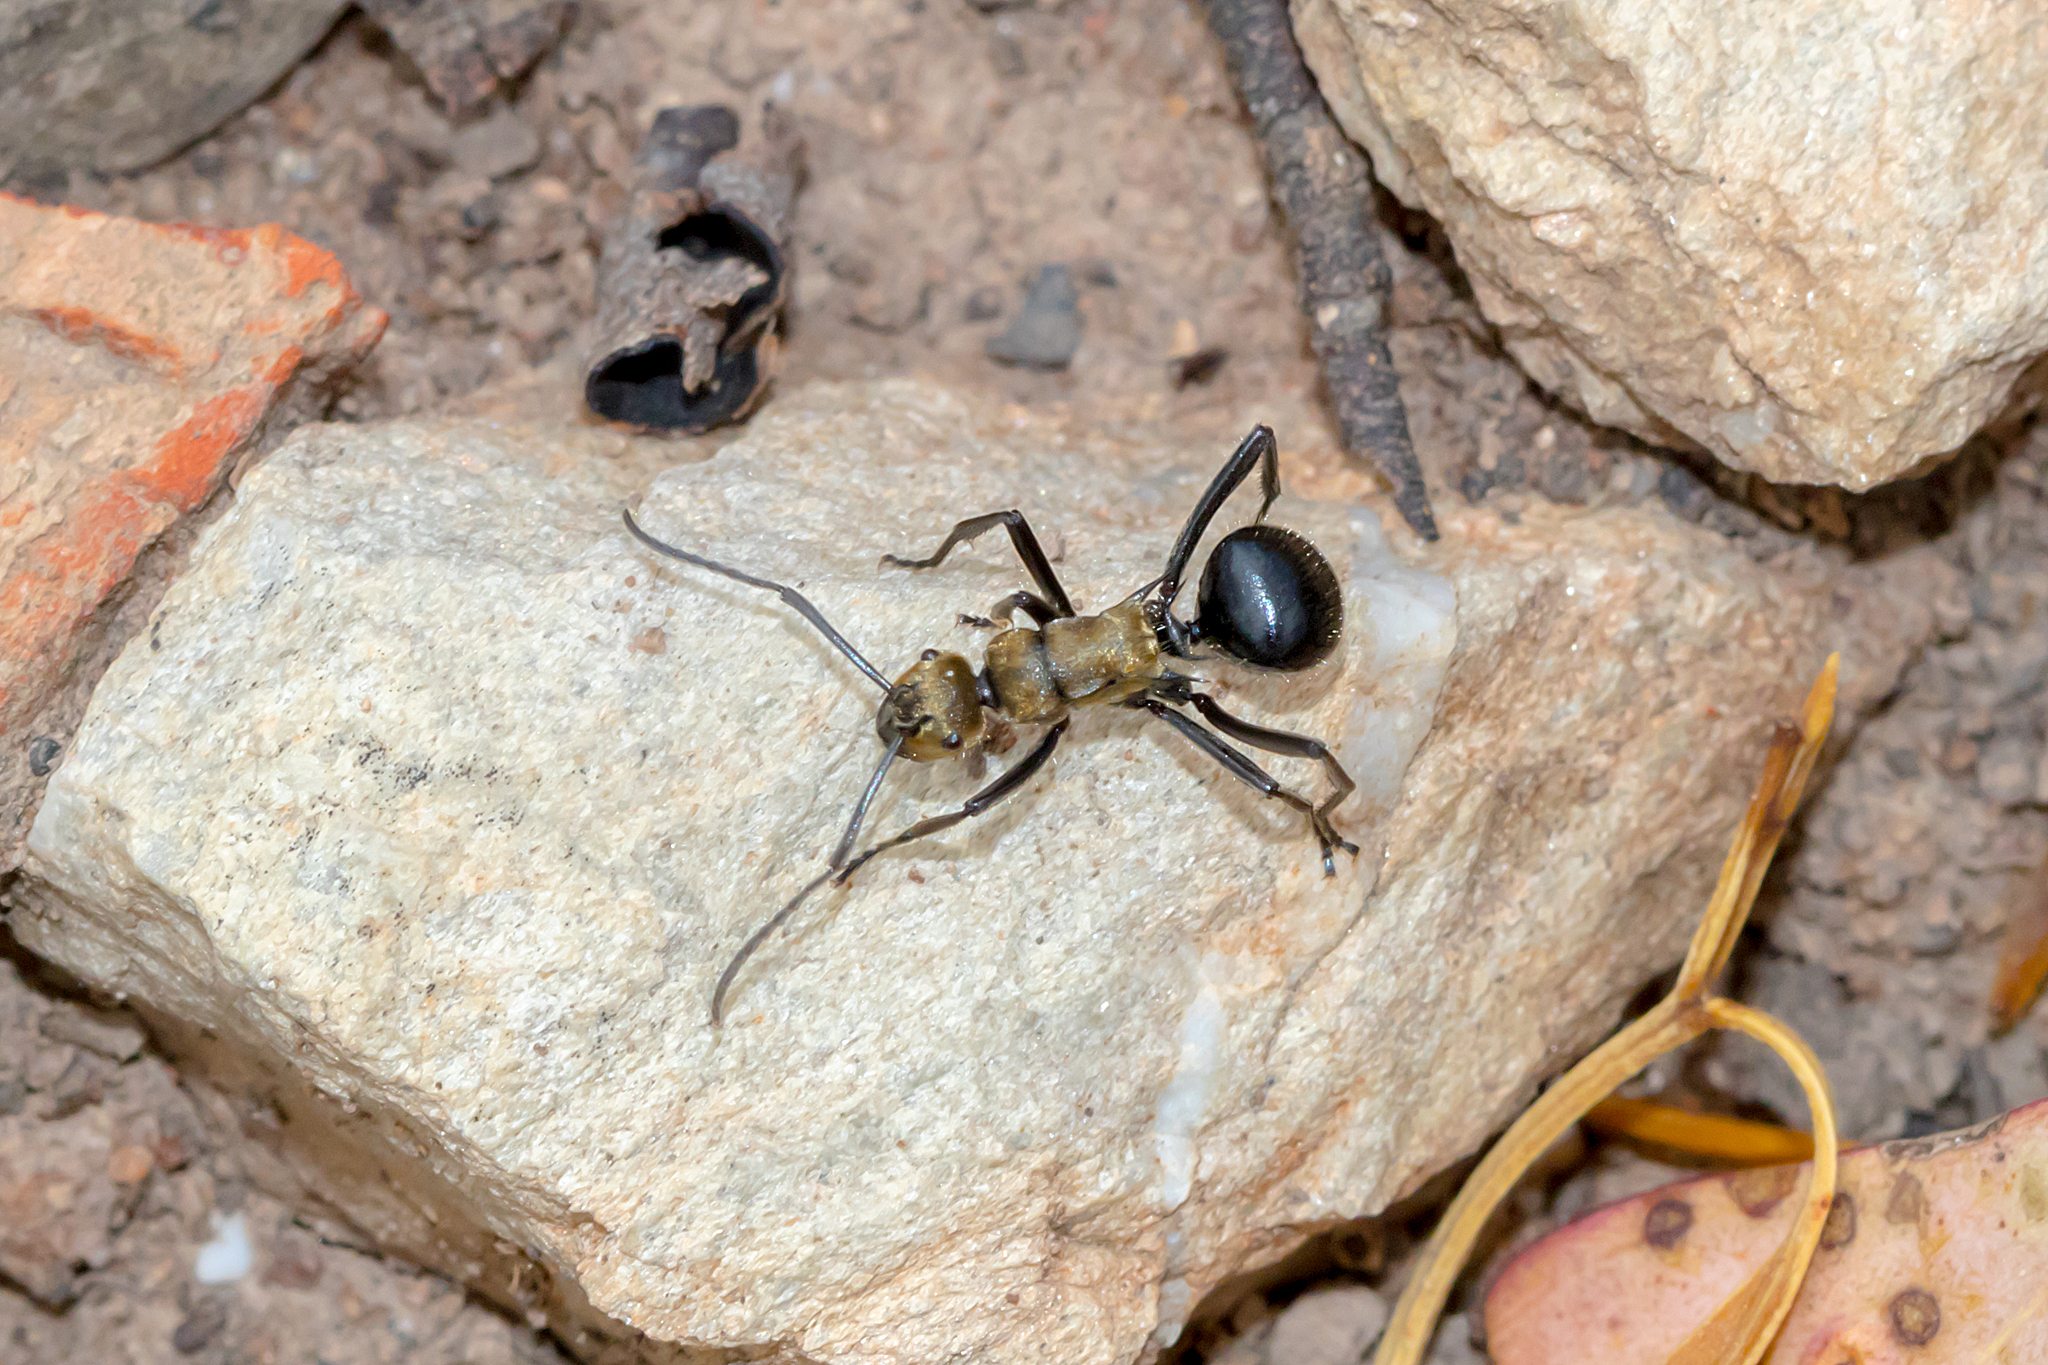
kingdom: Animalia
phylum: Arthropoda
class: Insecta
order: Hymenoptera
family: Formicidae
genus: Polyrhachis
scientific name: Polyrhachis semiaurata
